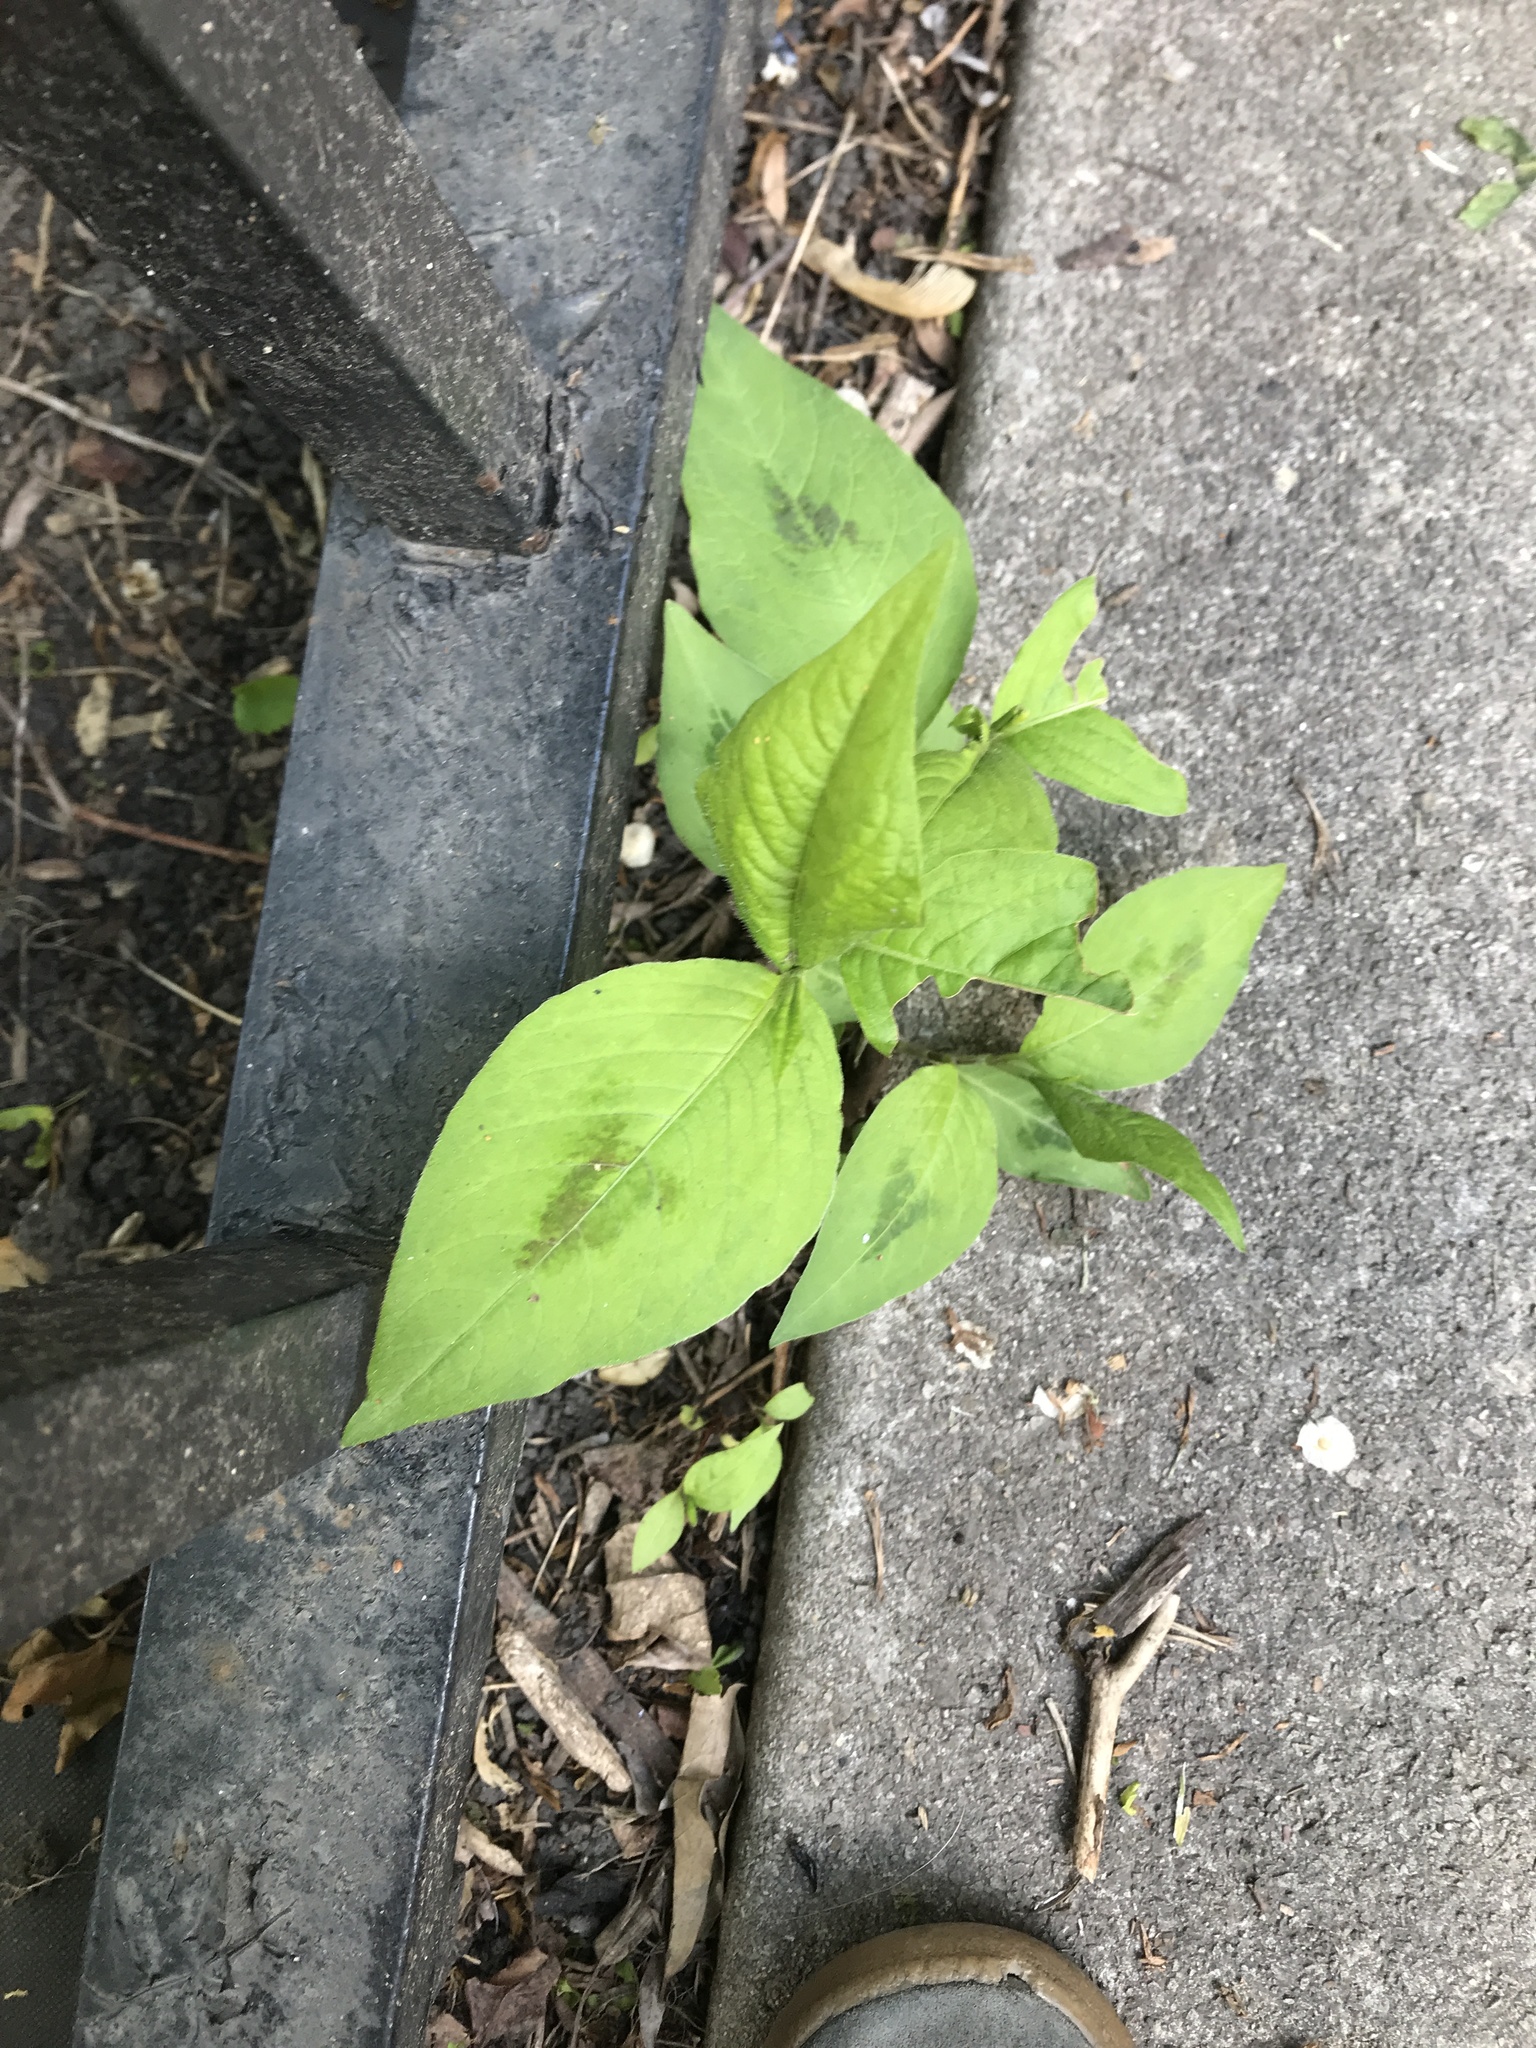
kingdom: Plantae
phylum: Tracheophyta
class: Magnoliopsida
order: Caryophyllales
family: Polygonaceae
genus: Persicaria
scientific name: Persicaria virginiana
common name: Jumpseed
